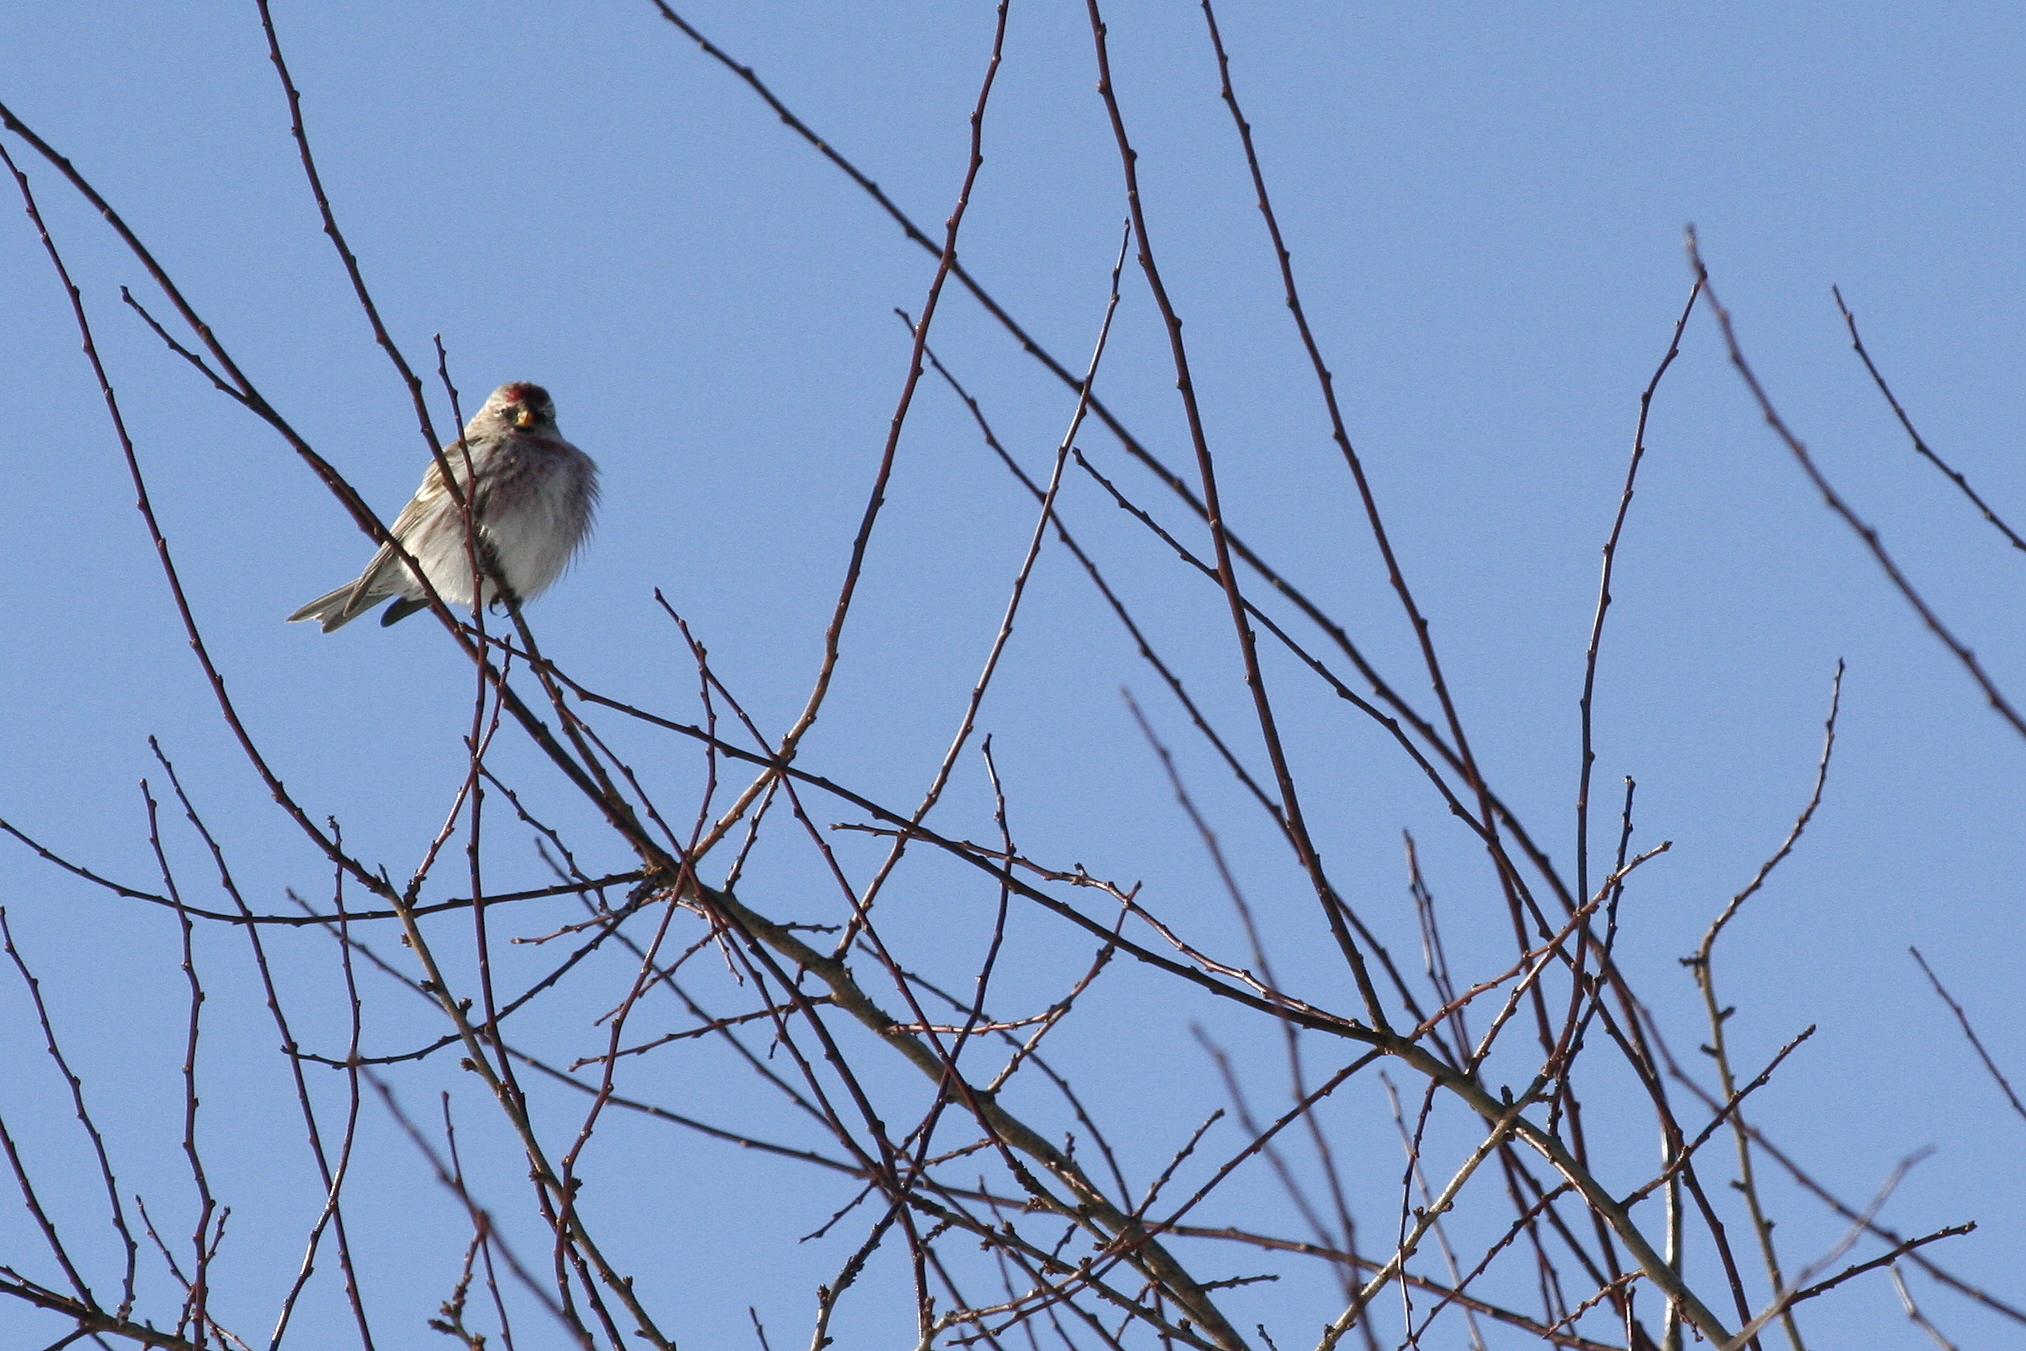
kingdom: Animalia
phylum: Chordata
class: Aves
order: Passeriformes
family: Fringillidae
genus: Acanthis
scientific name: Acanthis flammea
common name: Common redpoll
